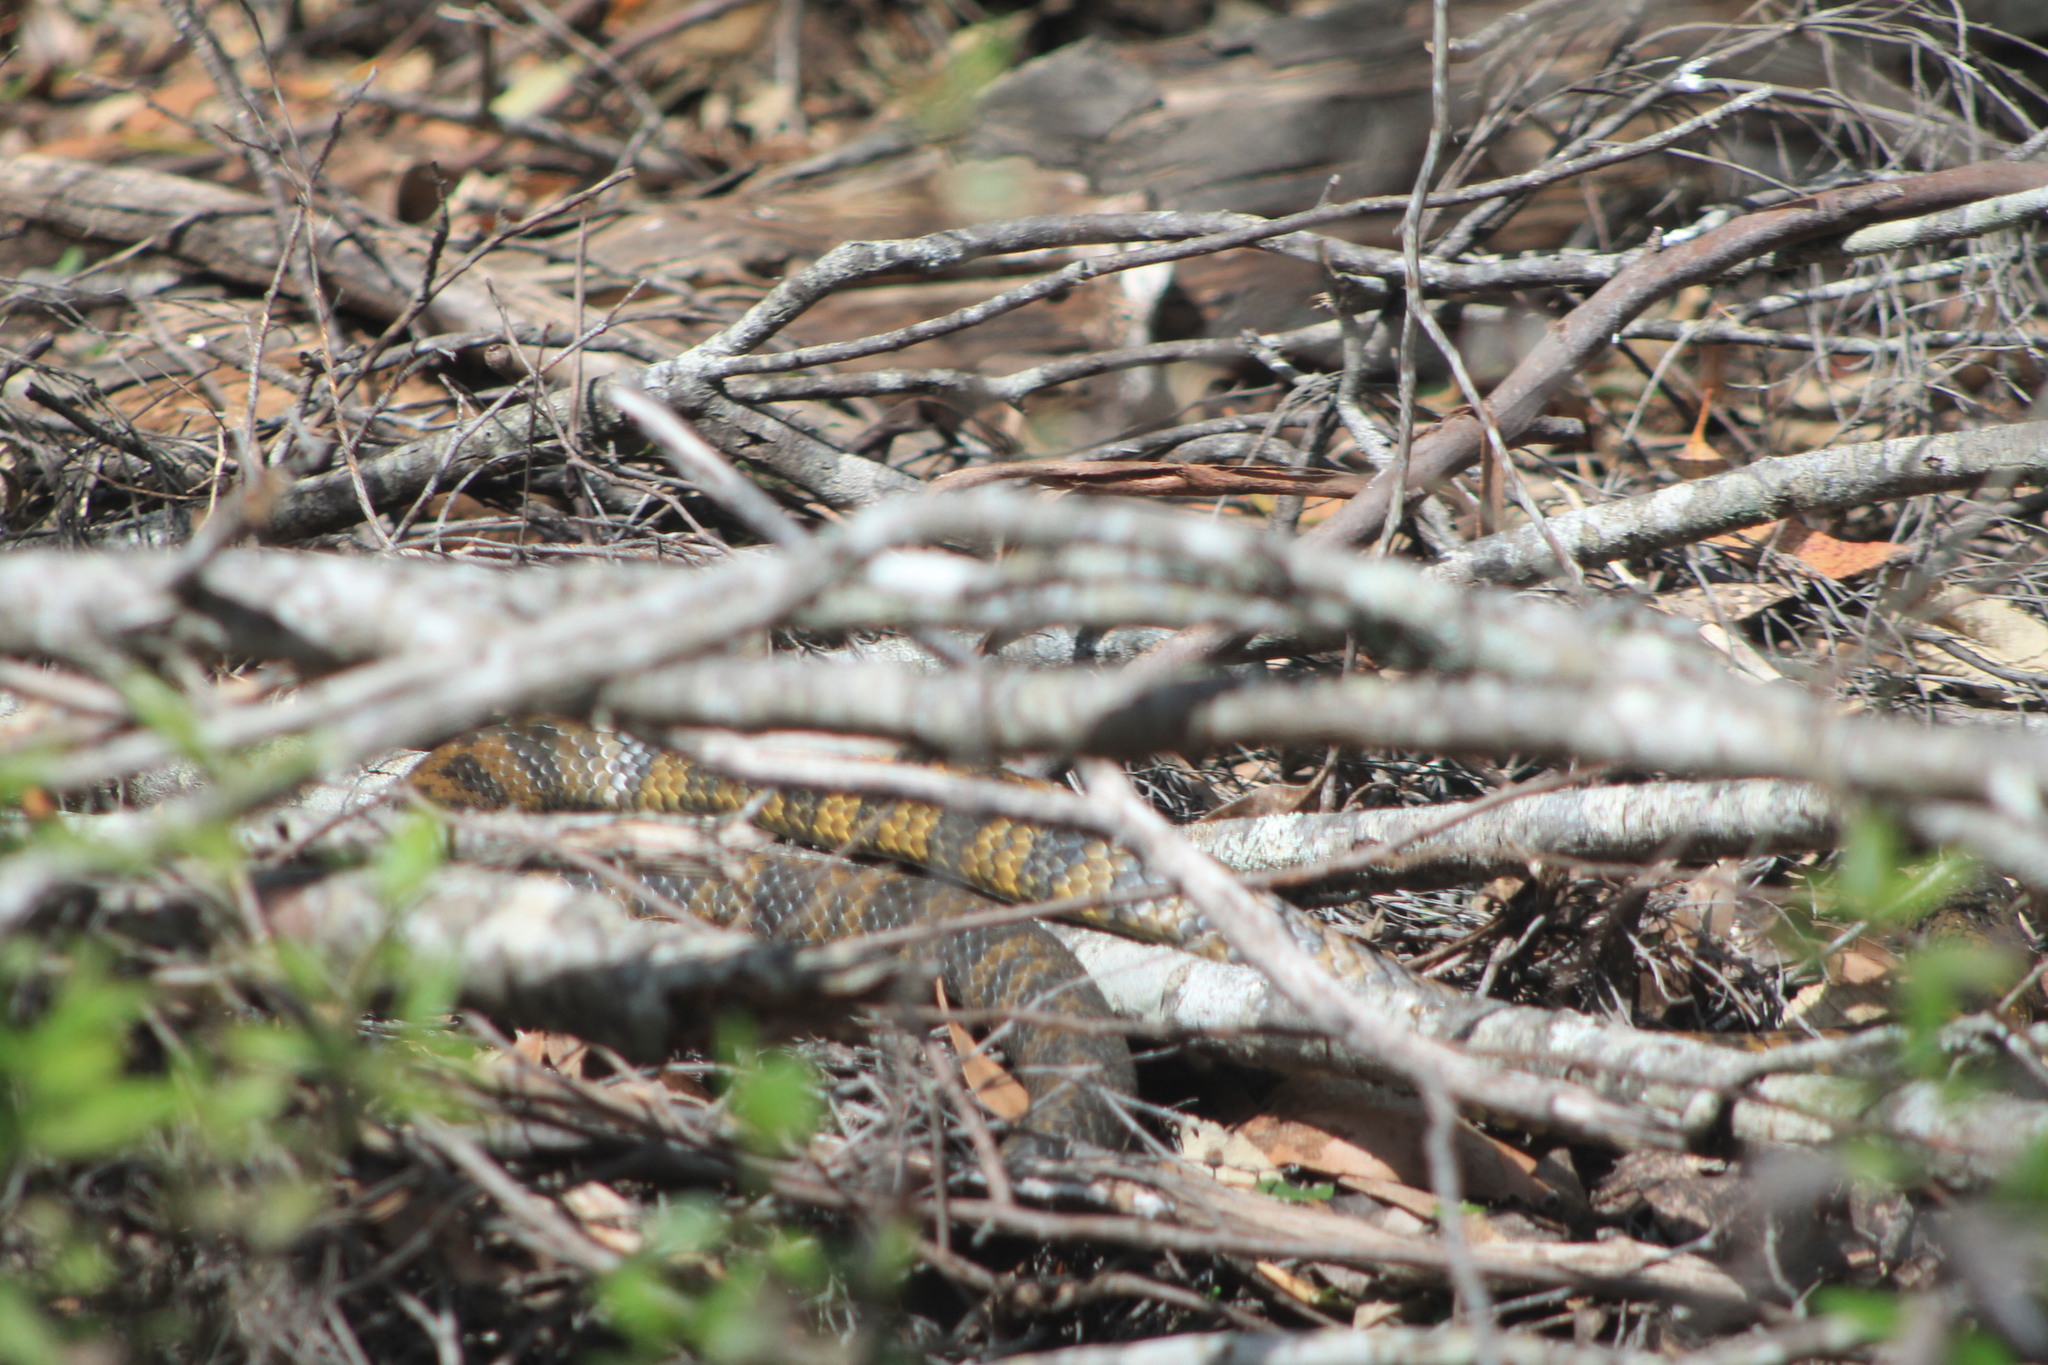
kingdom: Animalia
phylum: Chordata
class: Squamata
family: Elapidae
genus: Notechis
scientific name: Notechis scutatus
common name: Mainland tiger snake
